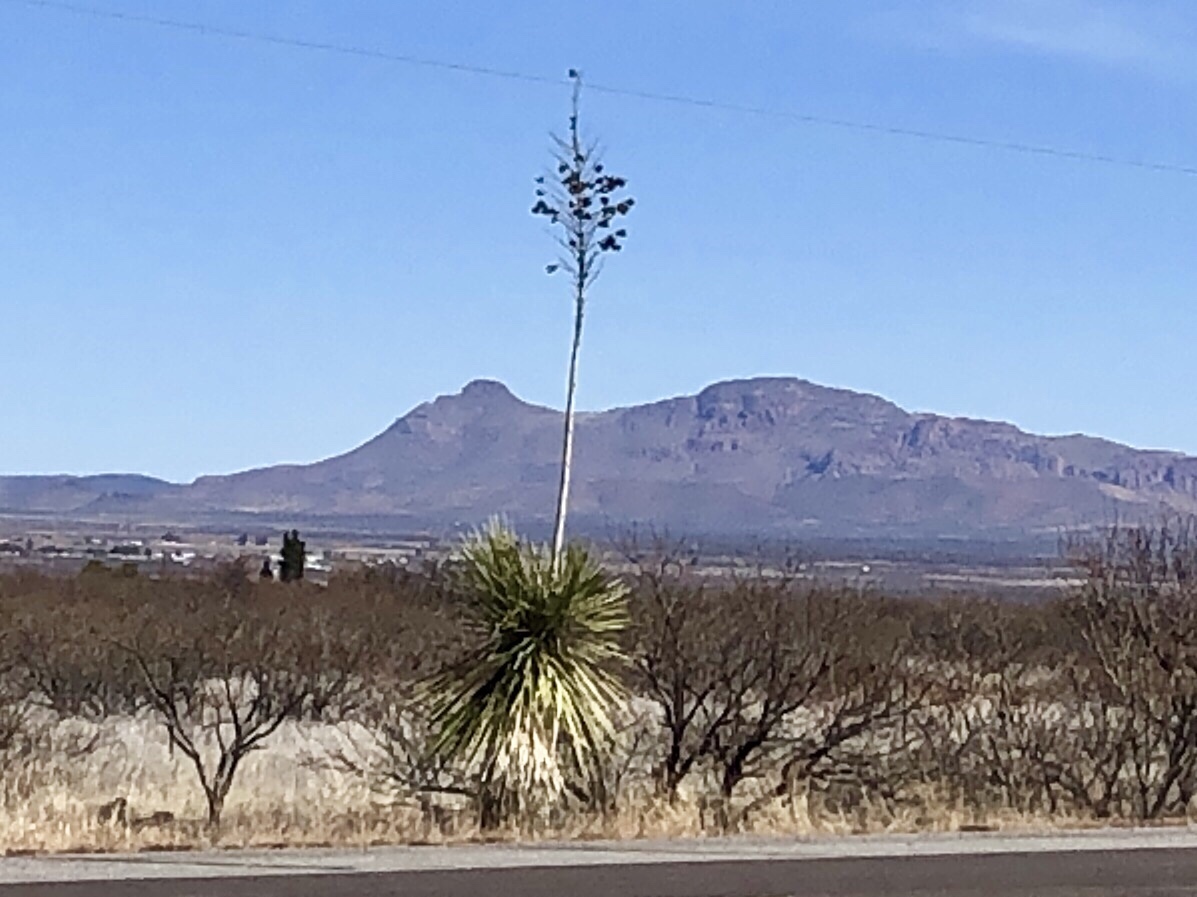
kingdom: Plantae
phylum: Tracheophyta
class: Liliopsida
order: Asparagales
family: Asparagaceae
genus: Yucca
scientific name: Yucca elata
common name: Palmella
